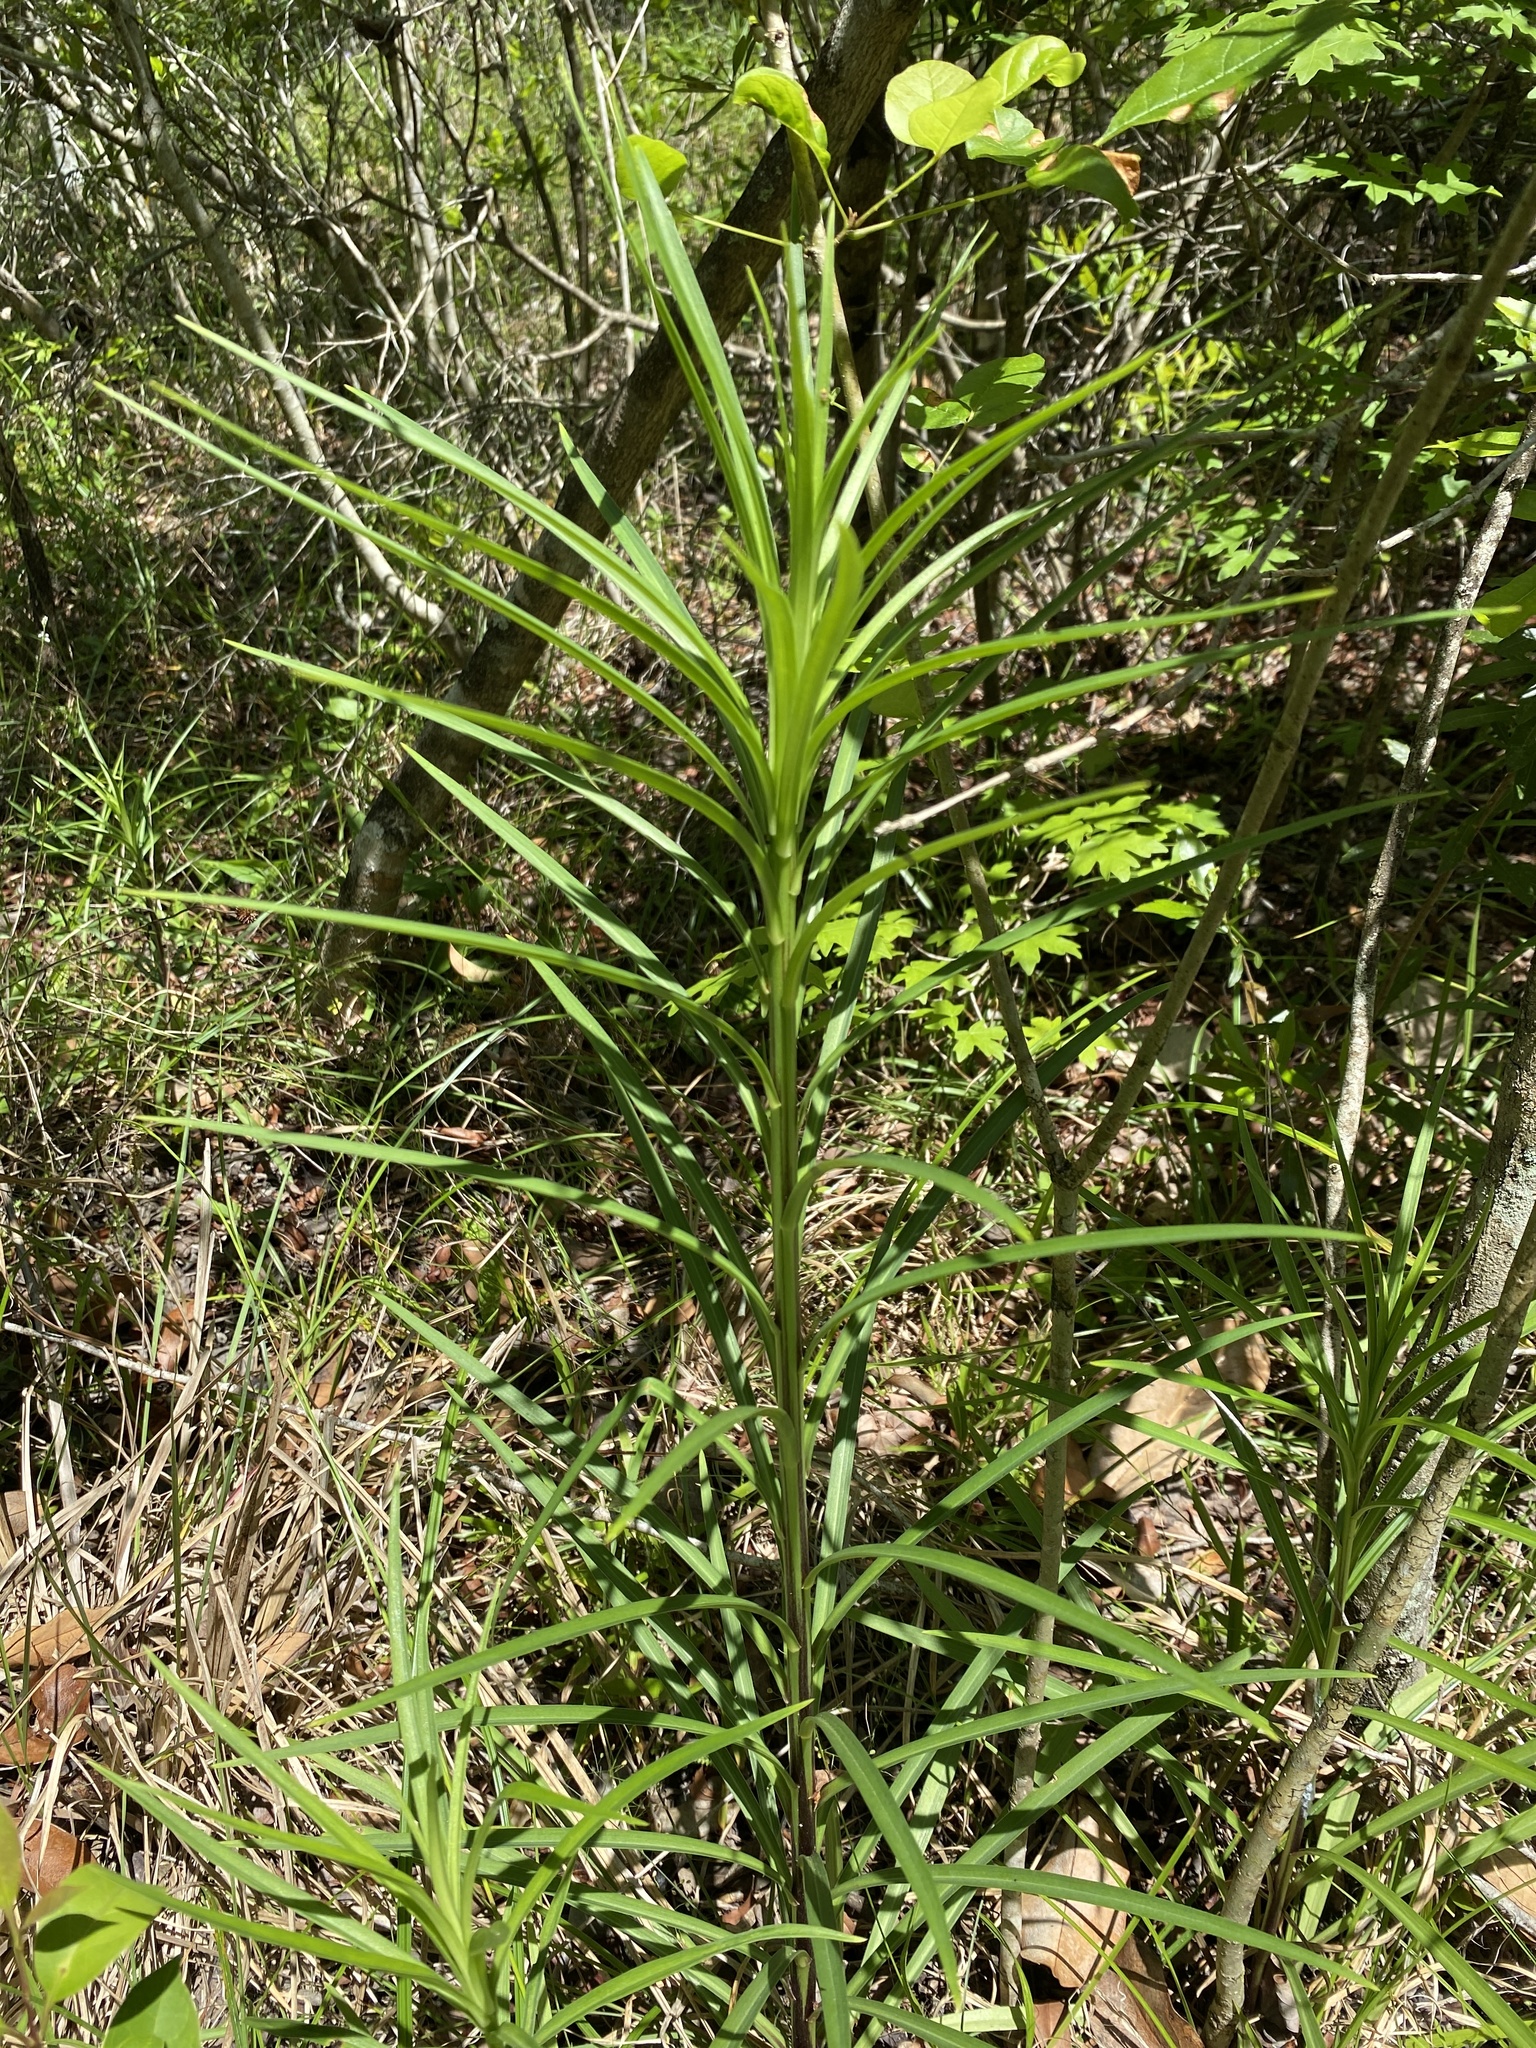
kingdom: Plantae
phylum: Tracheophyta
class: Liliopsida
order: Liliales
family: Liliaceae
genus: Lilium
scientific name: Lilium philippinense
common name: Philippine lily
